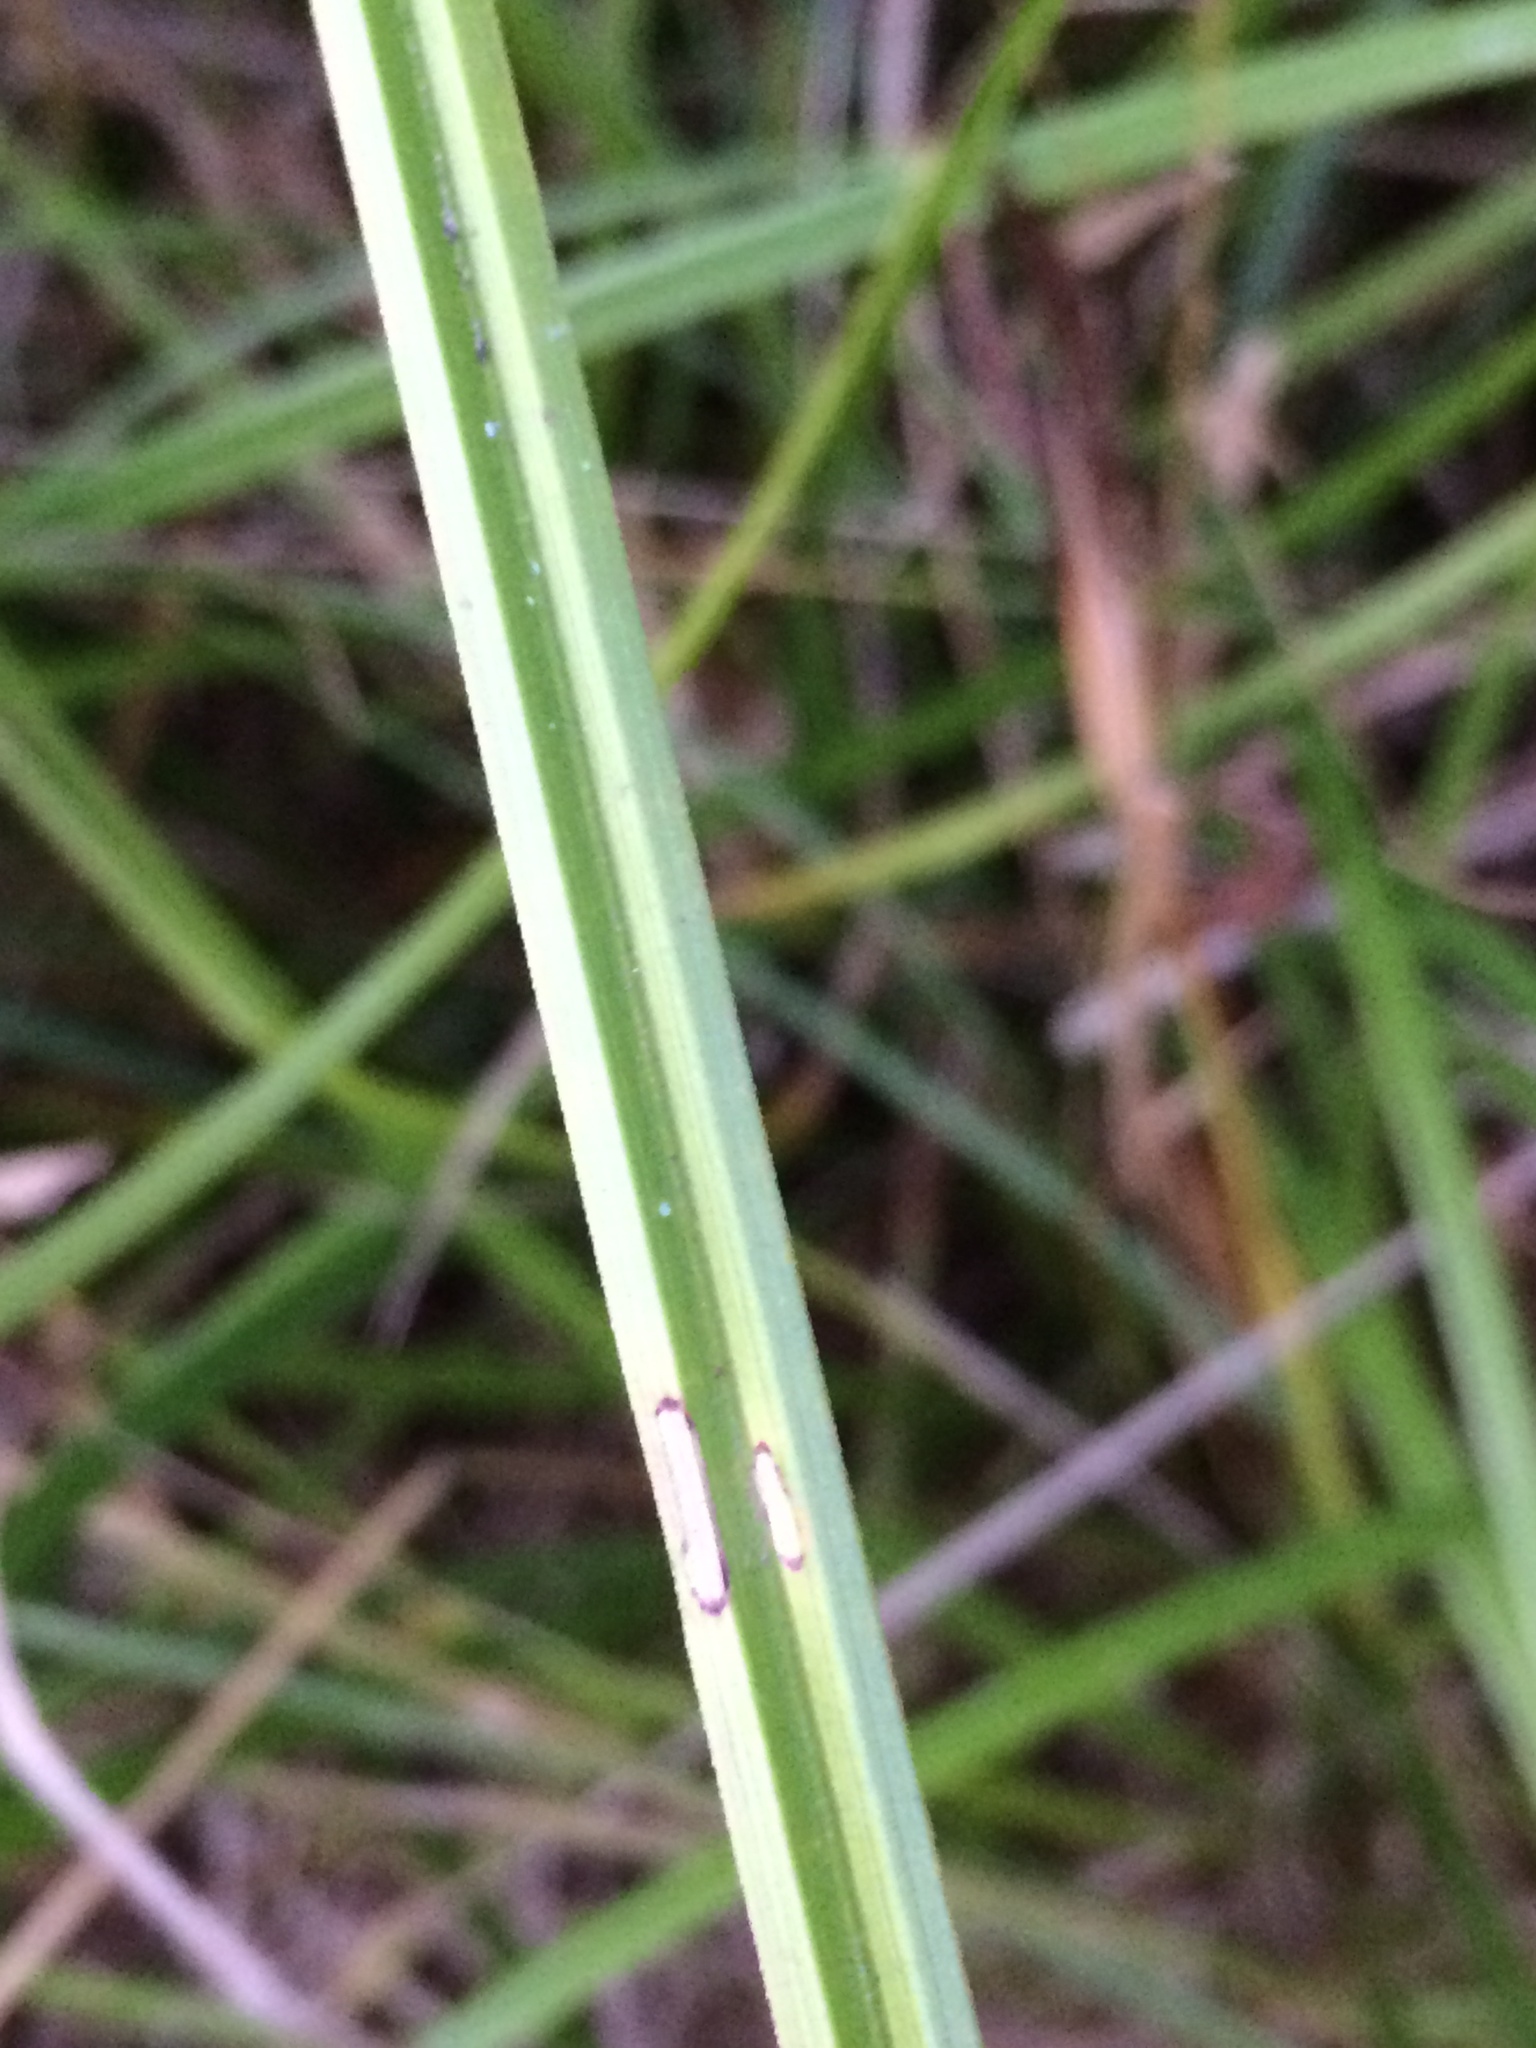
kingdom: Plantae
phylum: Tracheophyta
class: Liliopsida
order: Poales
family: Cyperaceae
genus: Carex
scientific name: Carex obnupta
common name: Slough sedge
